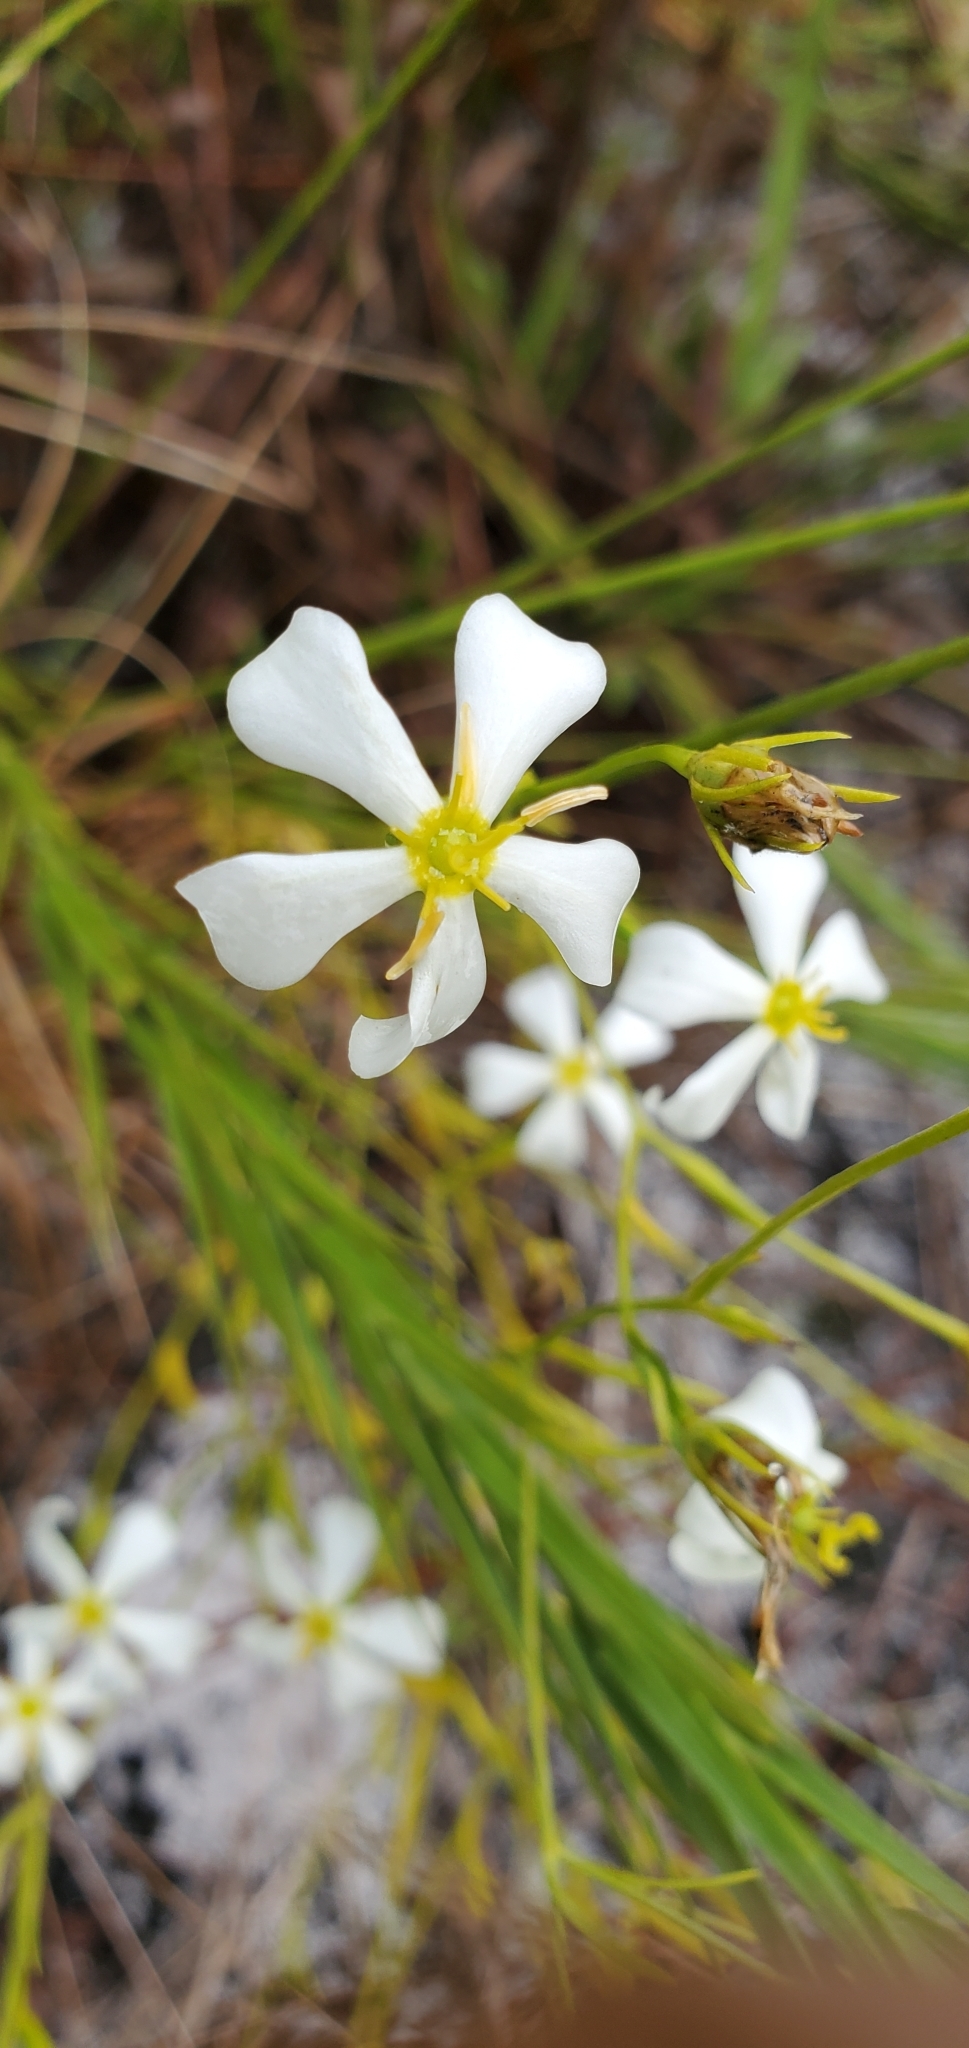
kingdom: Plantae
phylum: Tracheophyta
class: Magnoliopsida
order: Gentianales
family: Gentianaceae
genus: Sabatia
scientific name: Sabatia brevifolia
